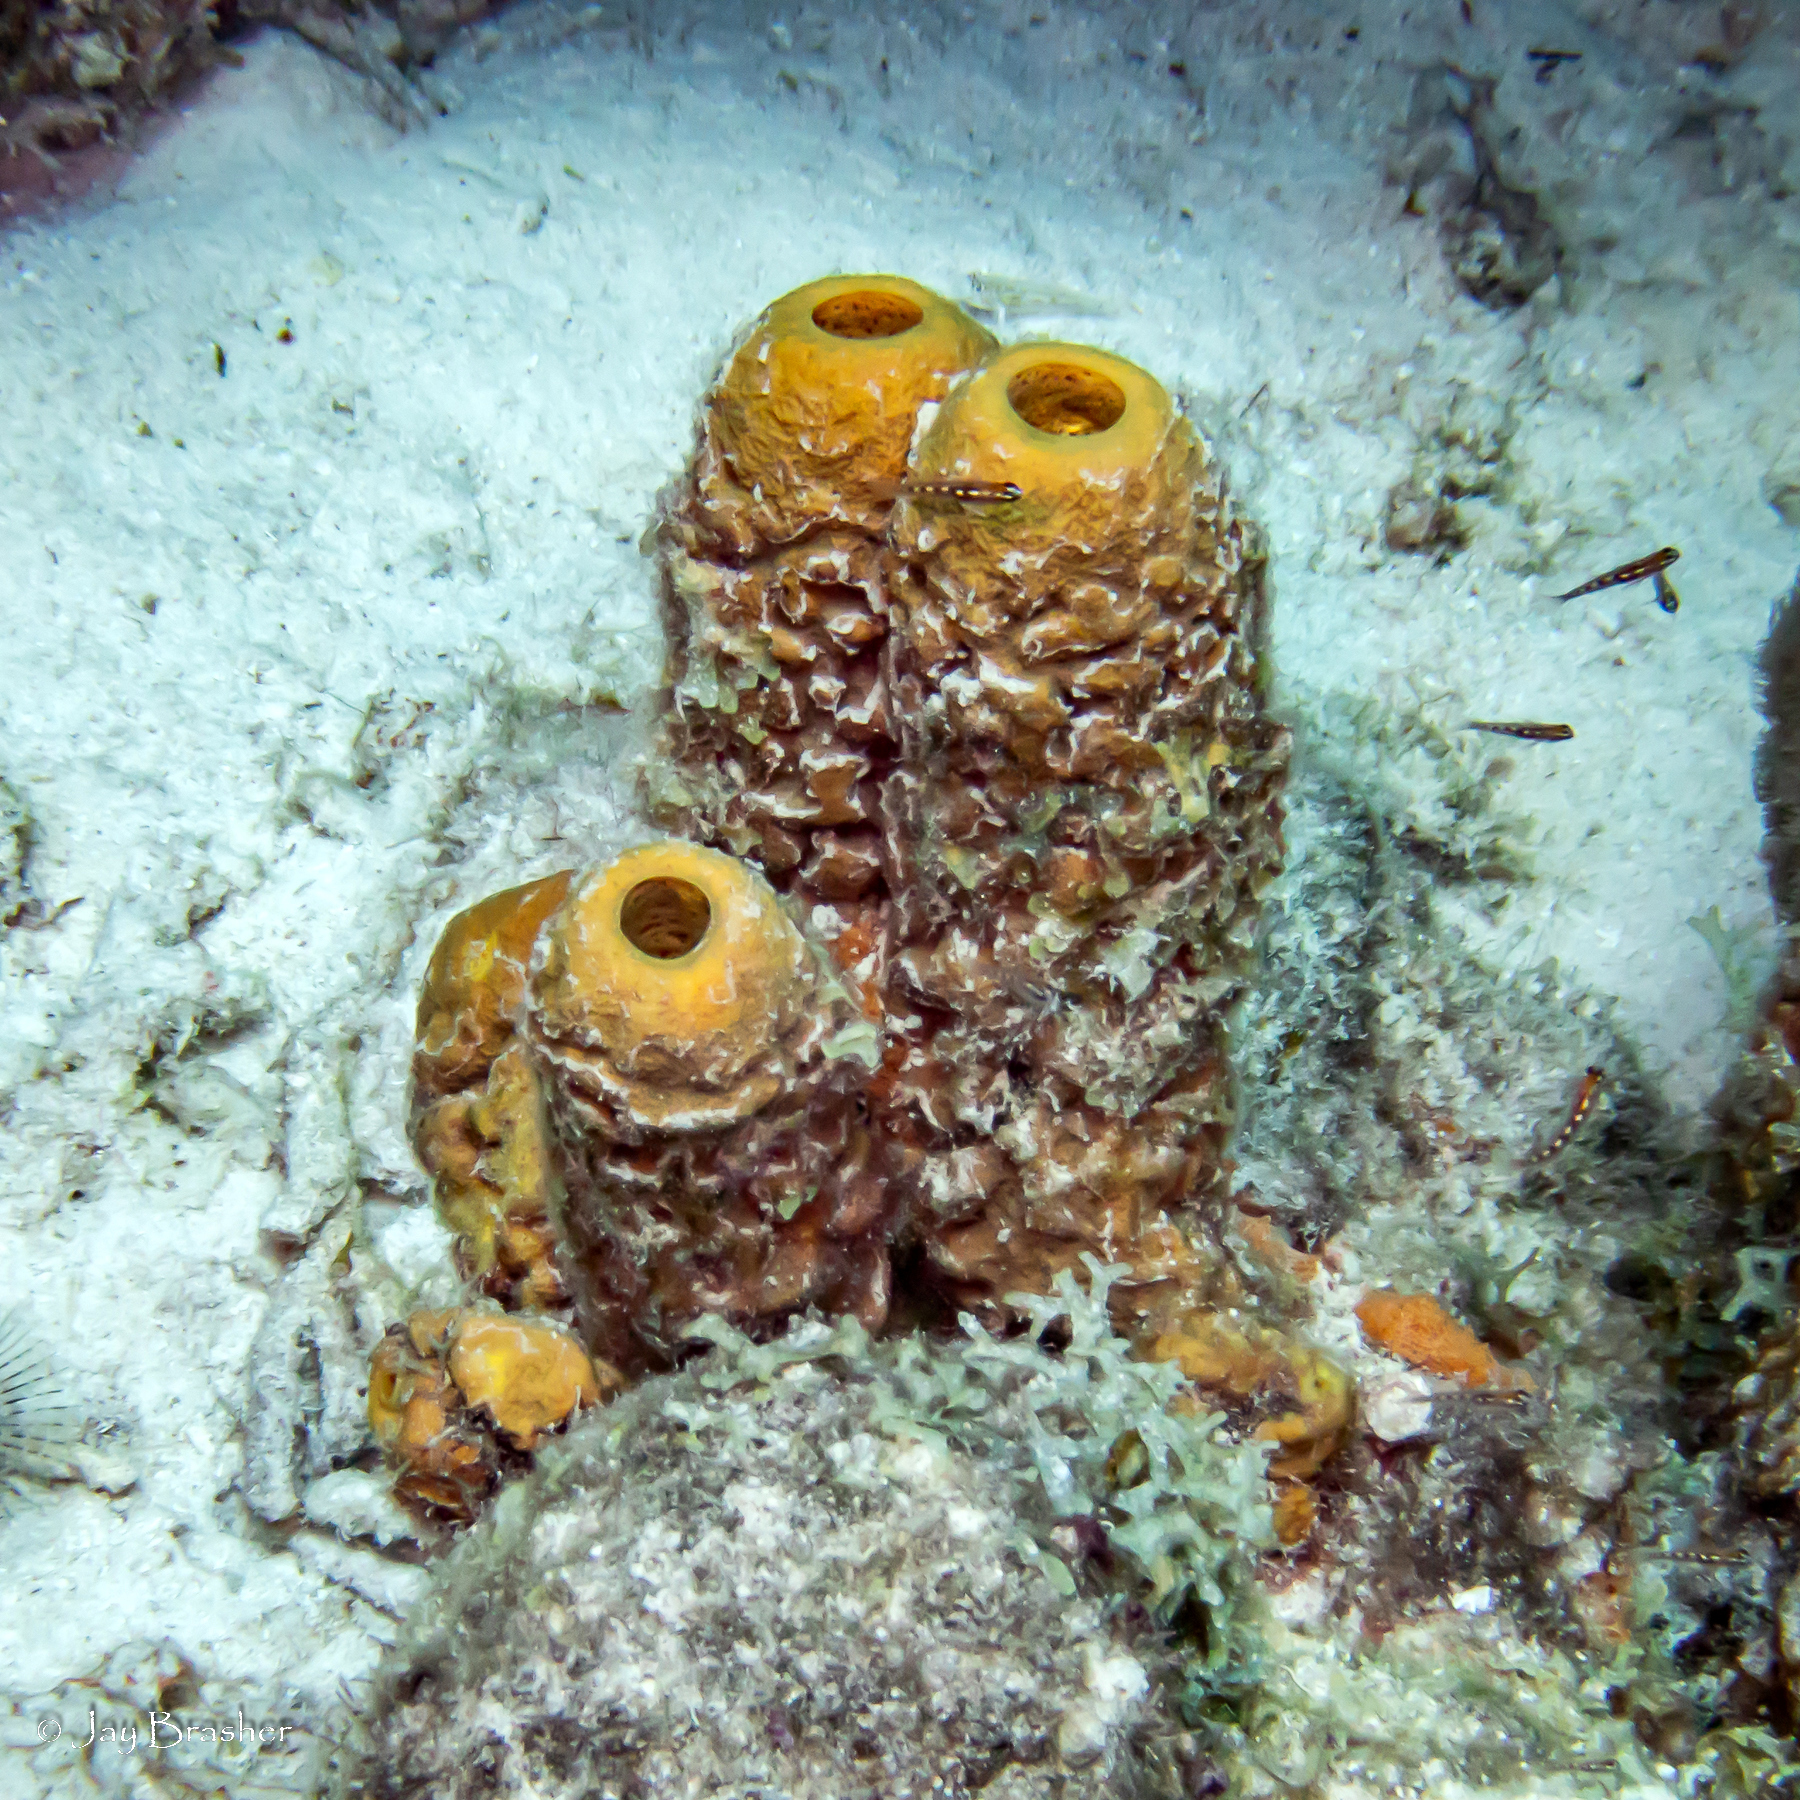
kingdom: Animalia
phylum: Porifera
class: Demospongiae
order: Verongiida
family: Aplysinidae
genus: Aplysina
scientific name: Aplysina archeri
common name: Stove-pipe sponge
